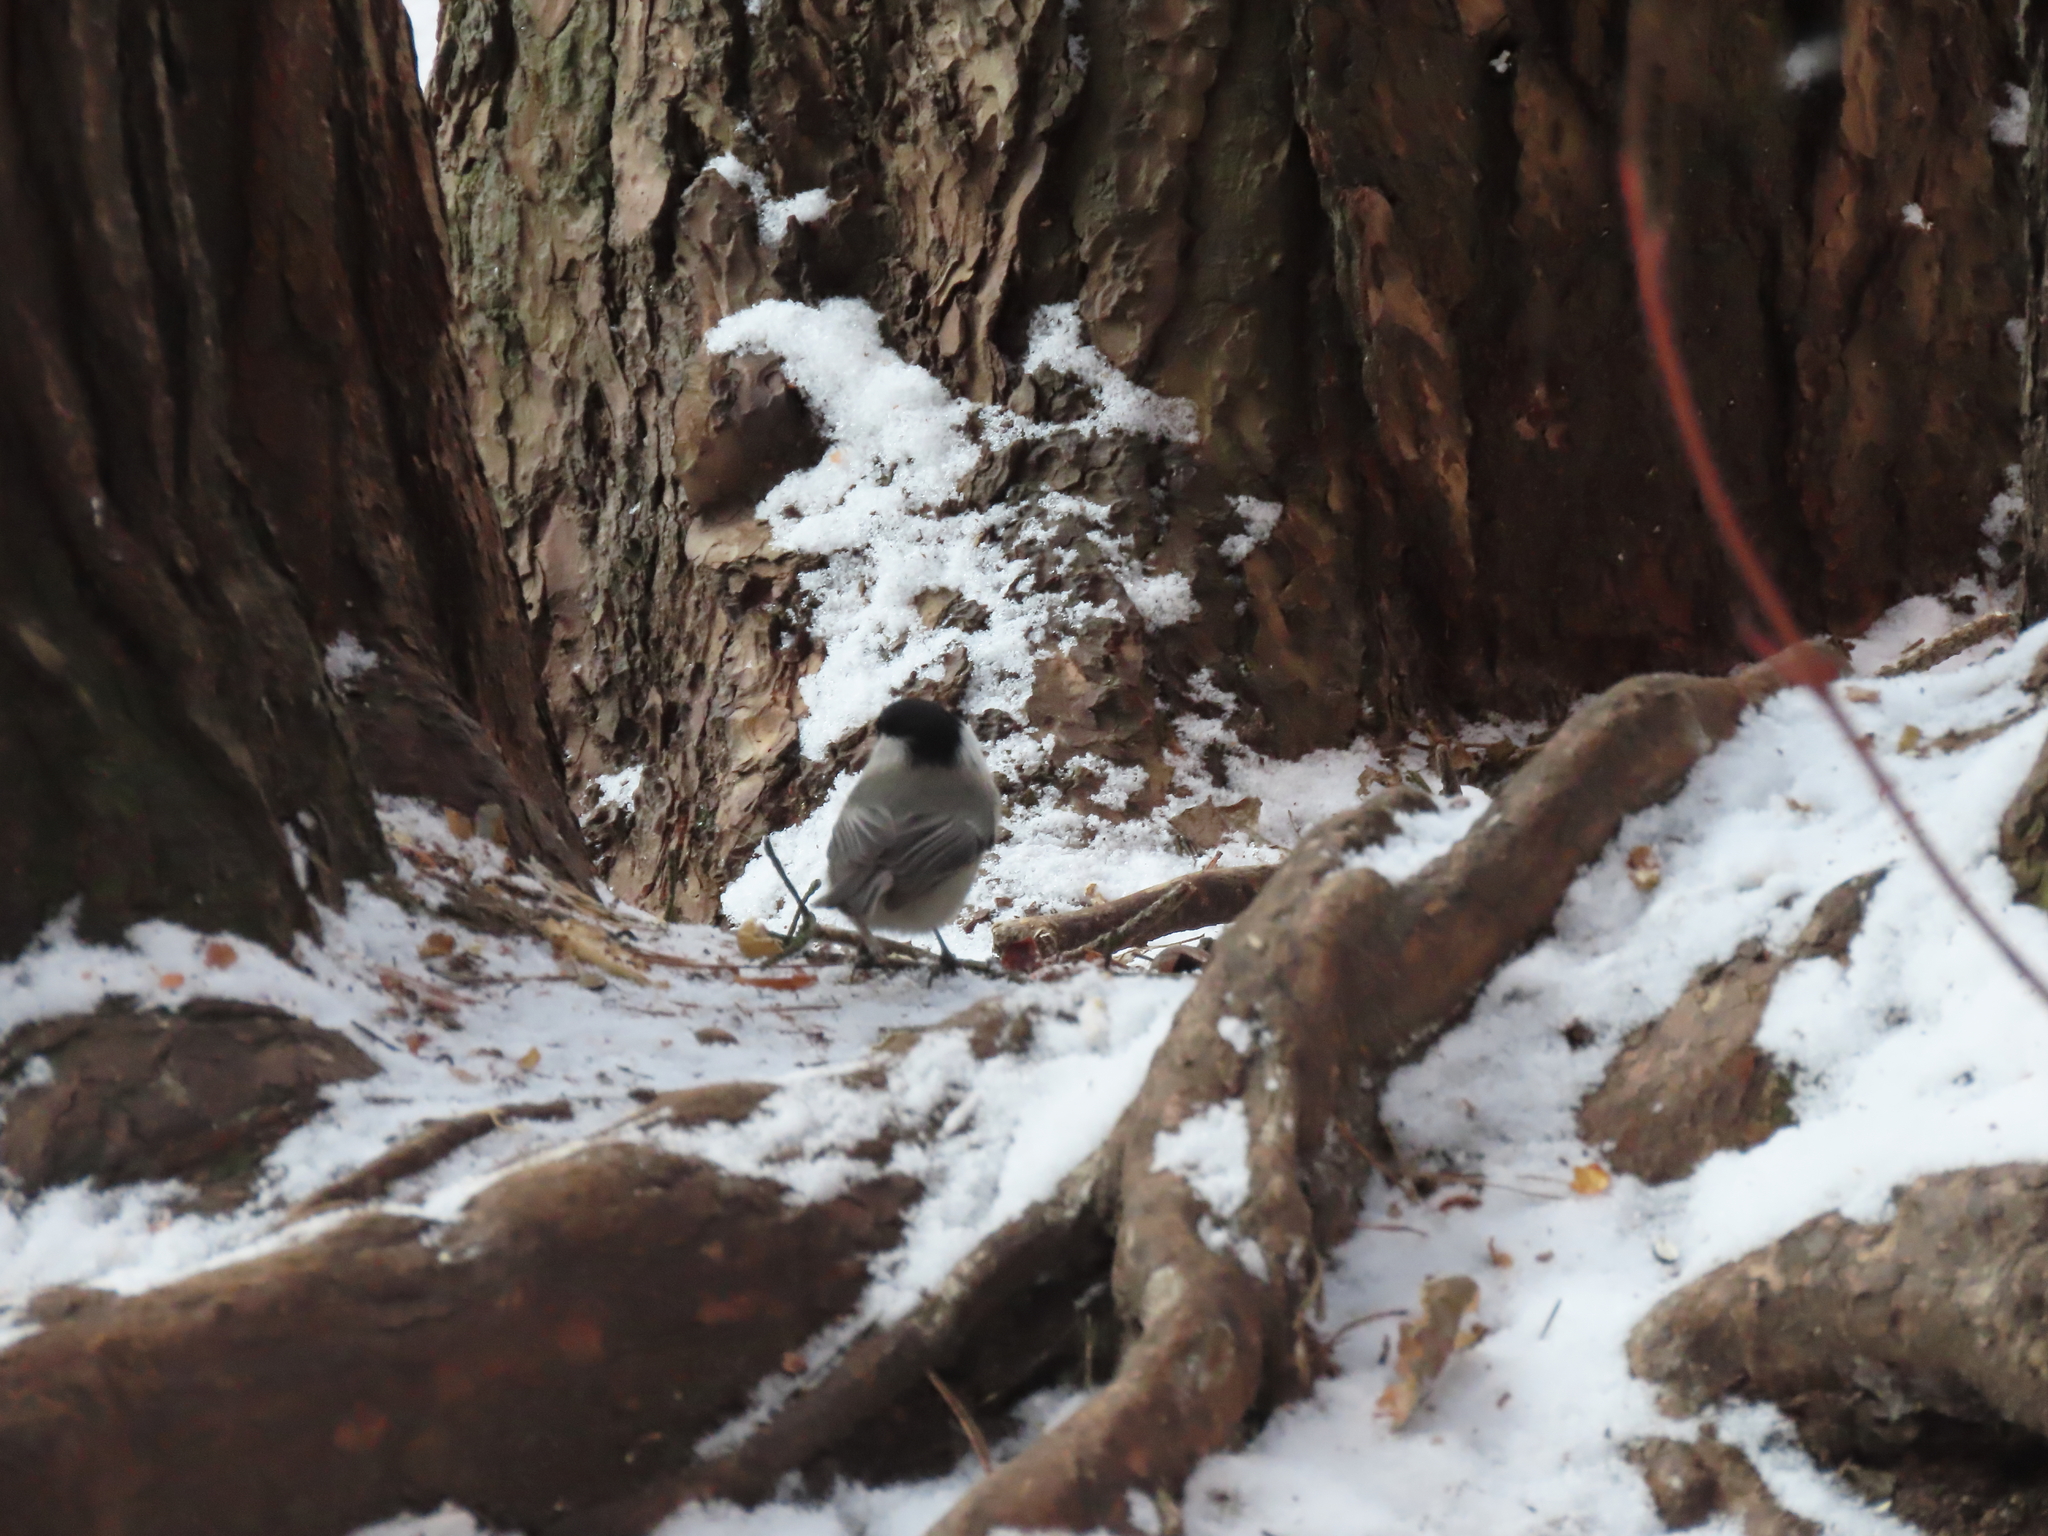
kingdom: Animalia
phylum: Chordata
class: Aves
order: Passeriformes
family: Paridae
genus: Poecile
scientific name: Poecile montanus
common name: Willow tit
